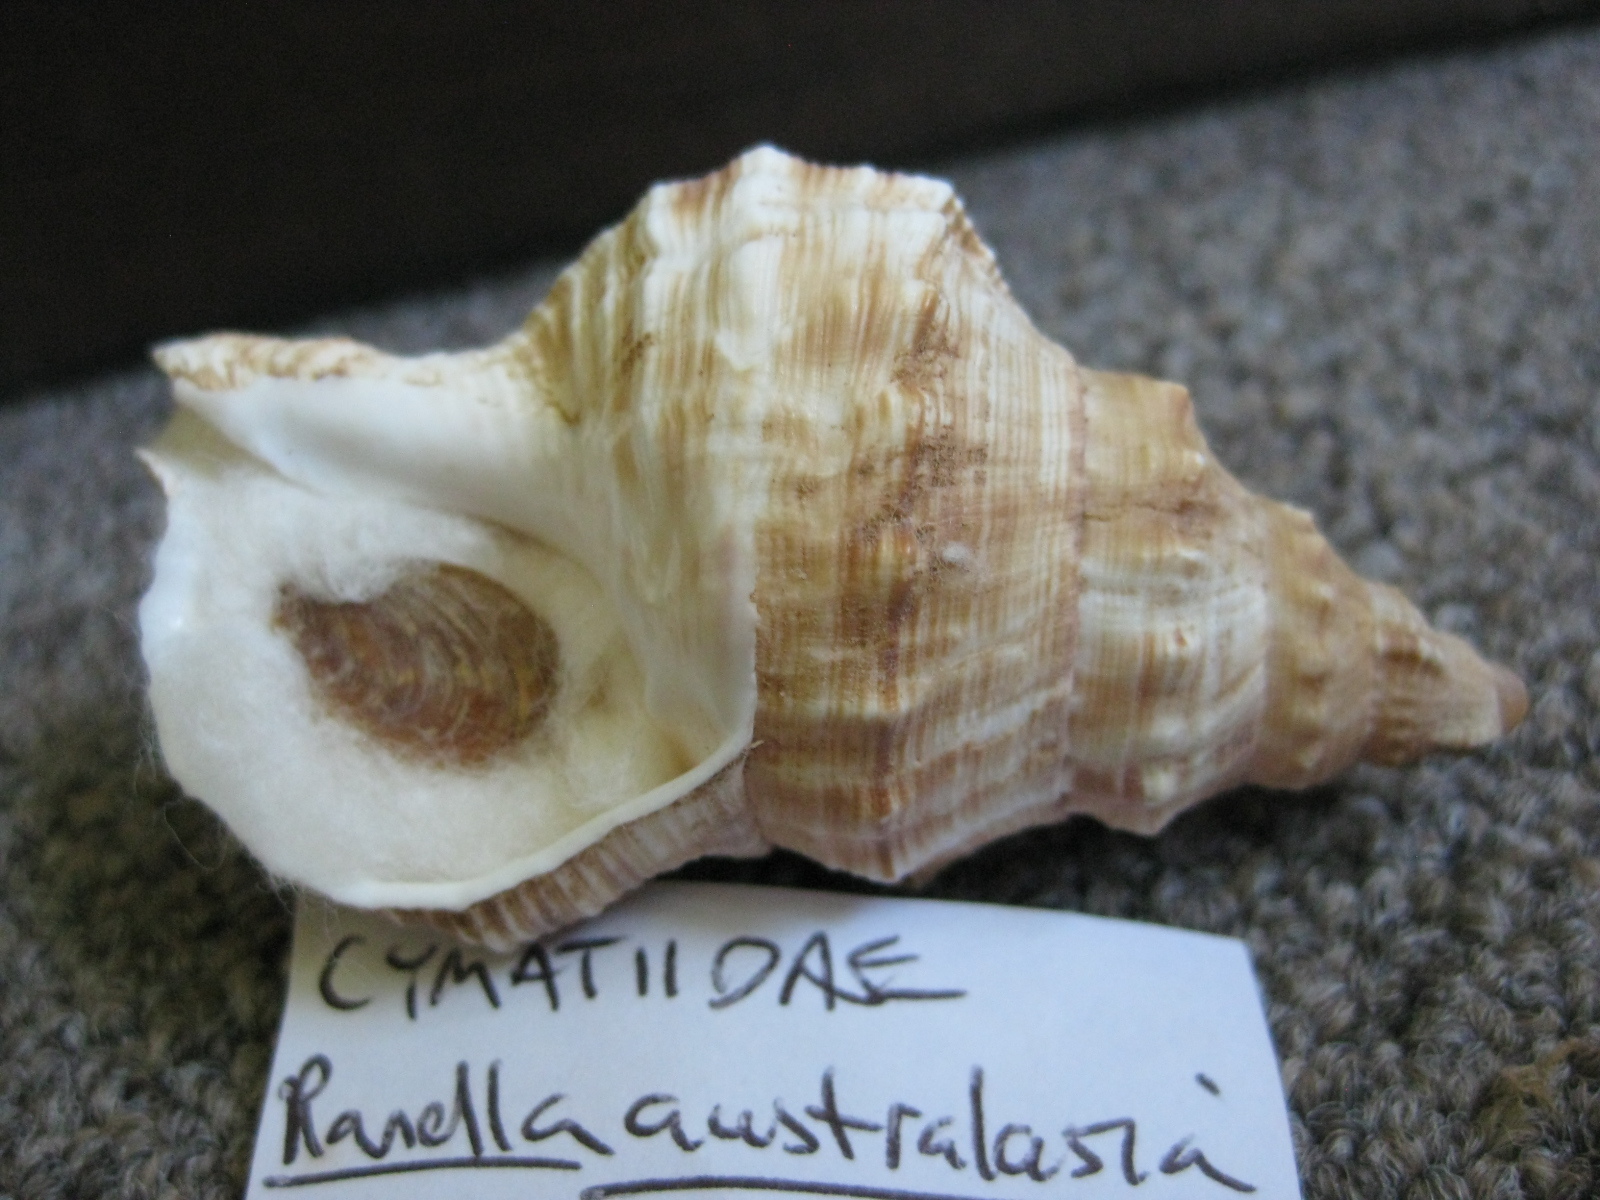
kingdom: Animalia
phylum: Mollusca
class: Gastropoda
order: Littorinimorpha
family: Ranellidae
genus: Ranella
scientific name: Ranella australasia
